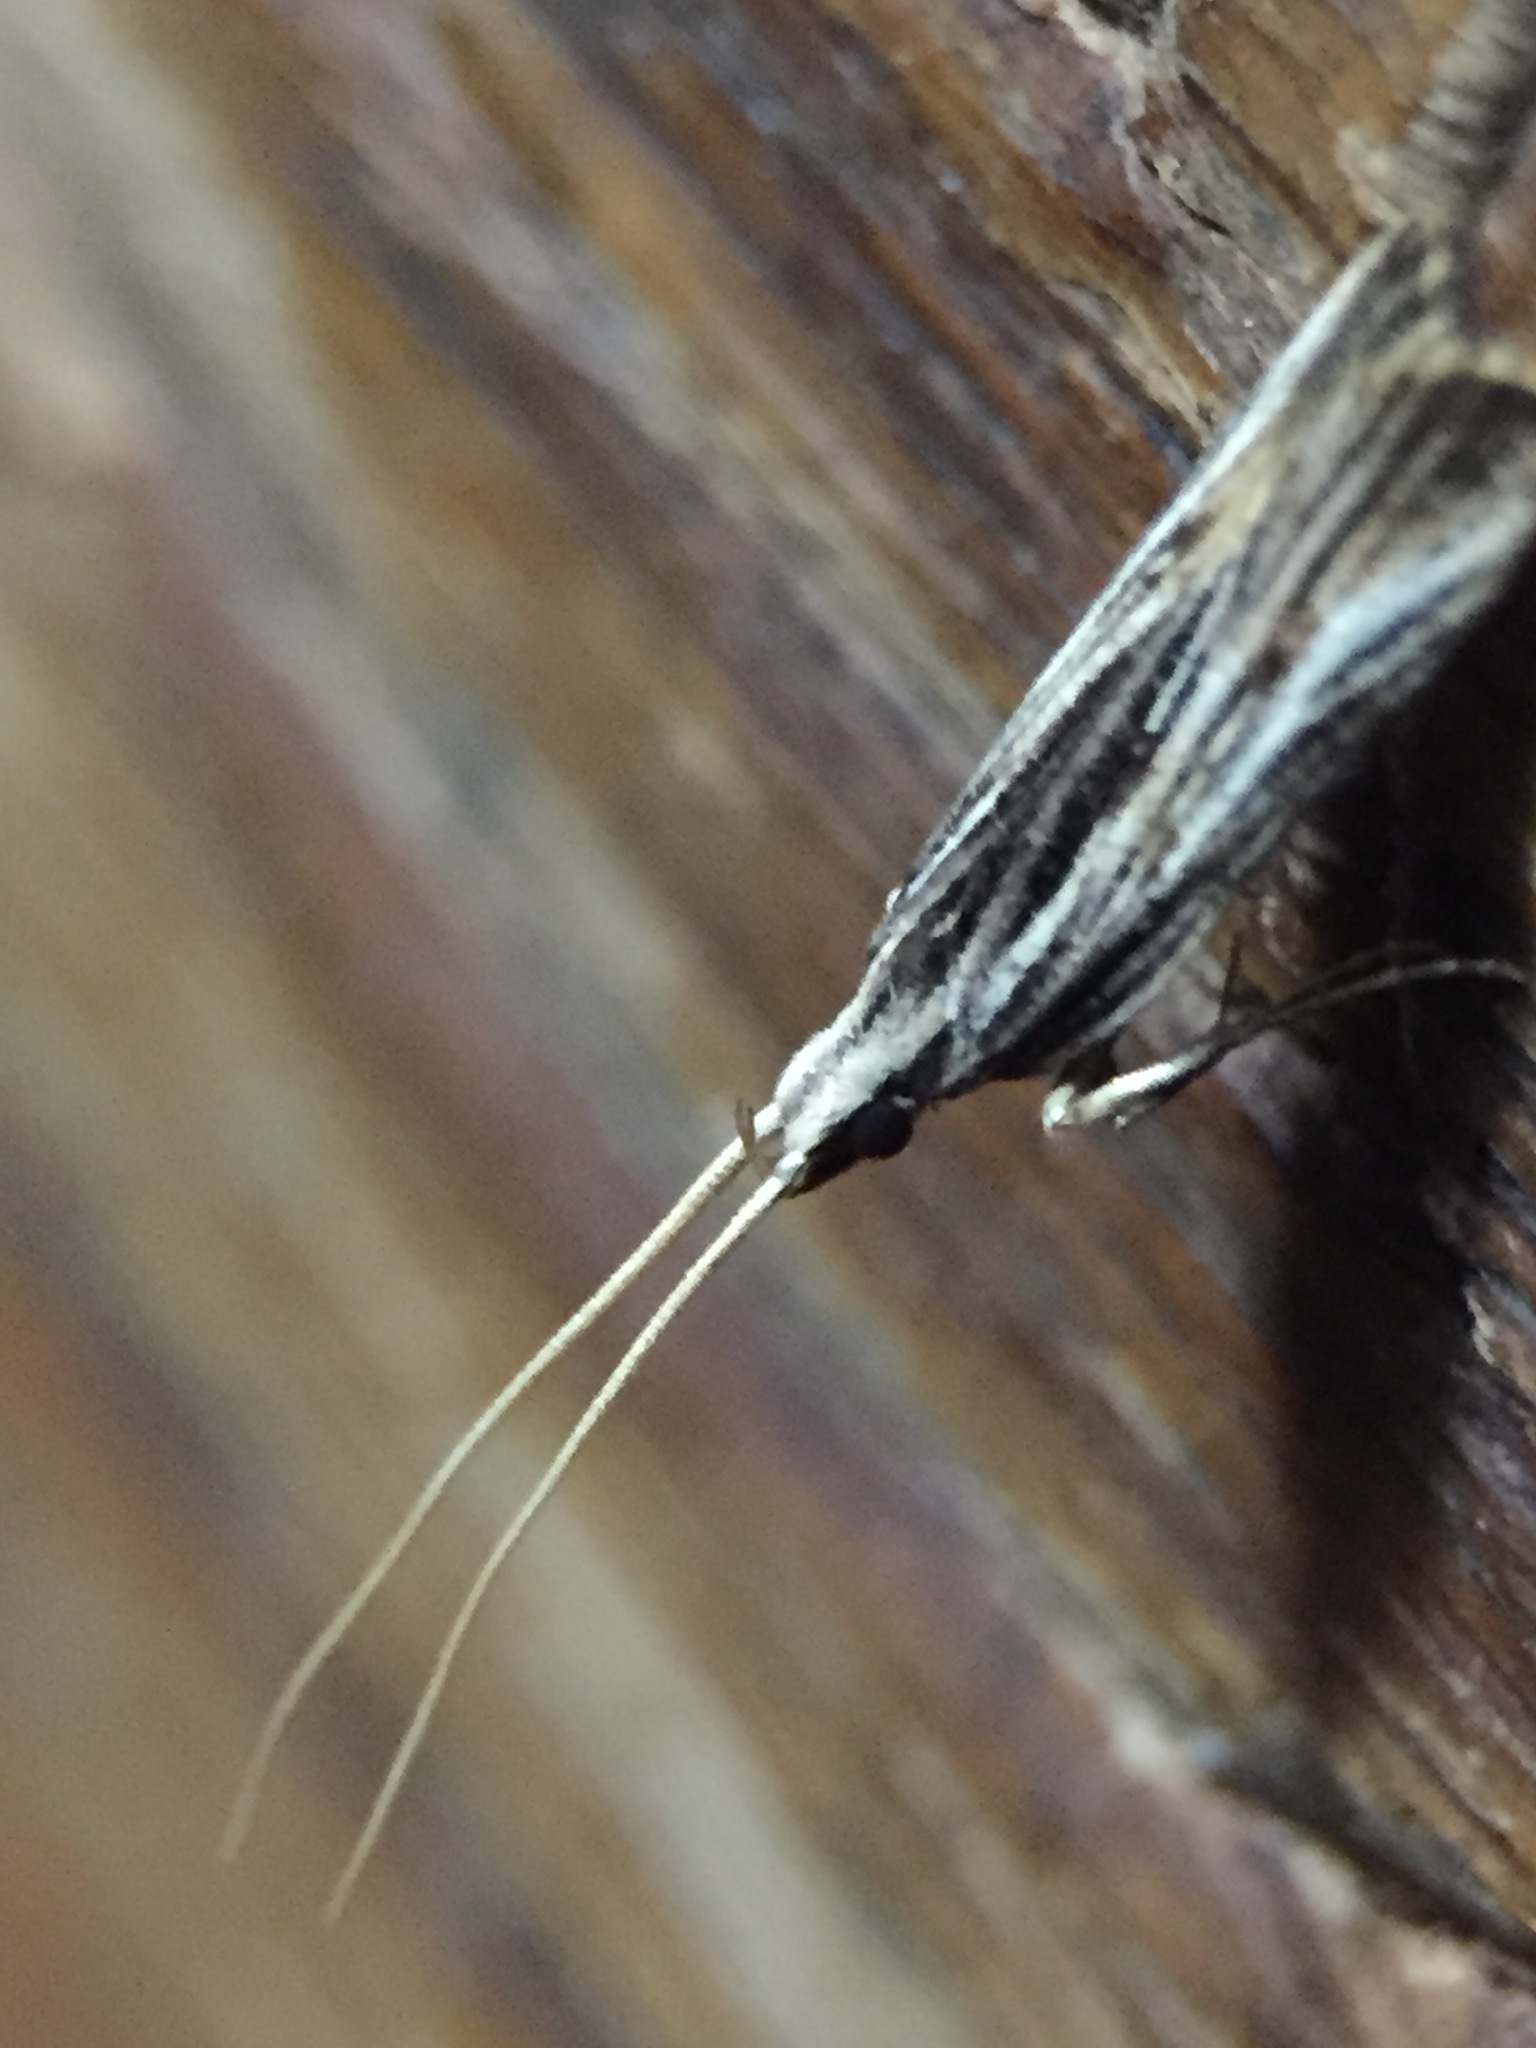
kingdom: Animalia
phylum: Arthropoda
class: Insecta
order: Lepidoptera
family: Lecithoceridae
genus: Sarisophora
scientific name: Sarisophora leucoscia
